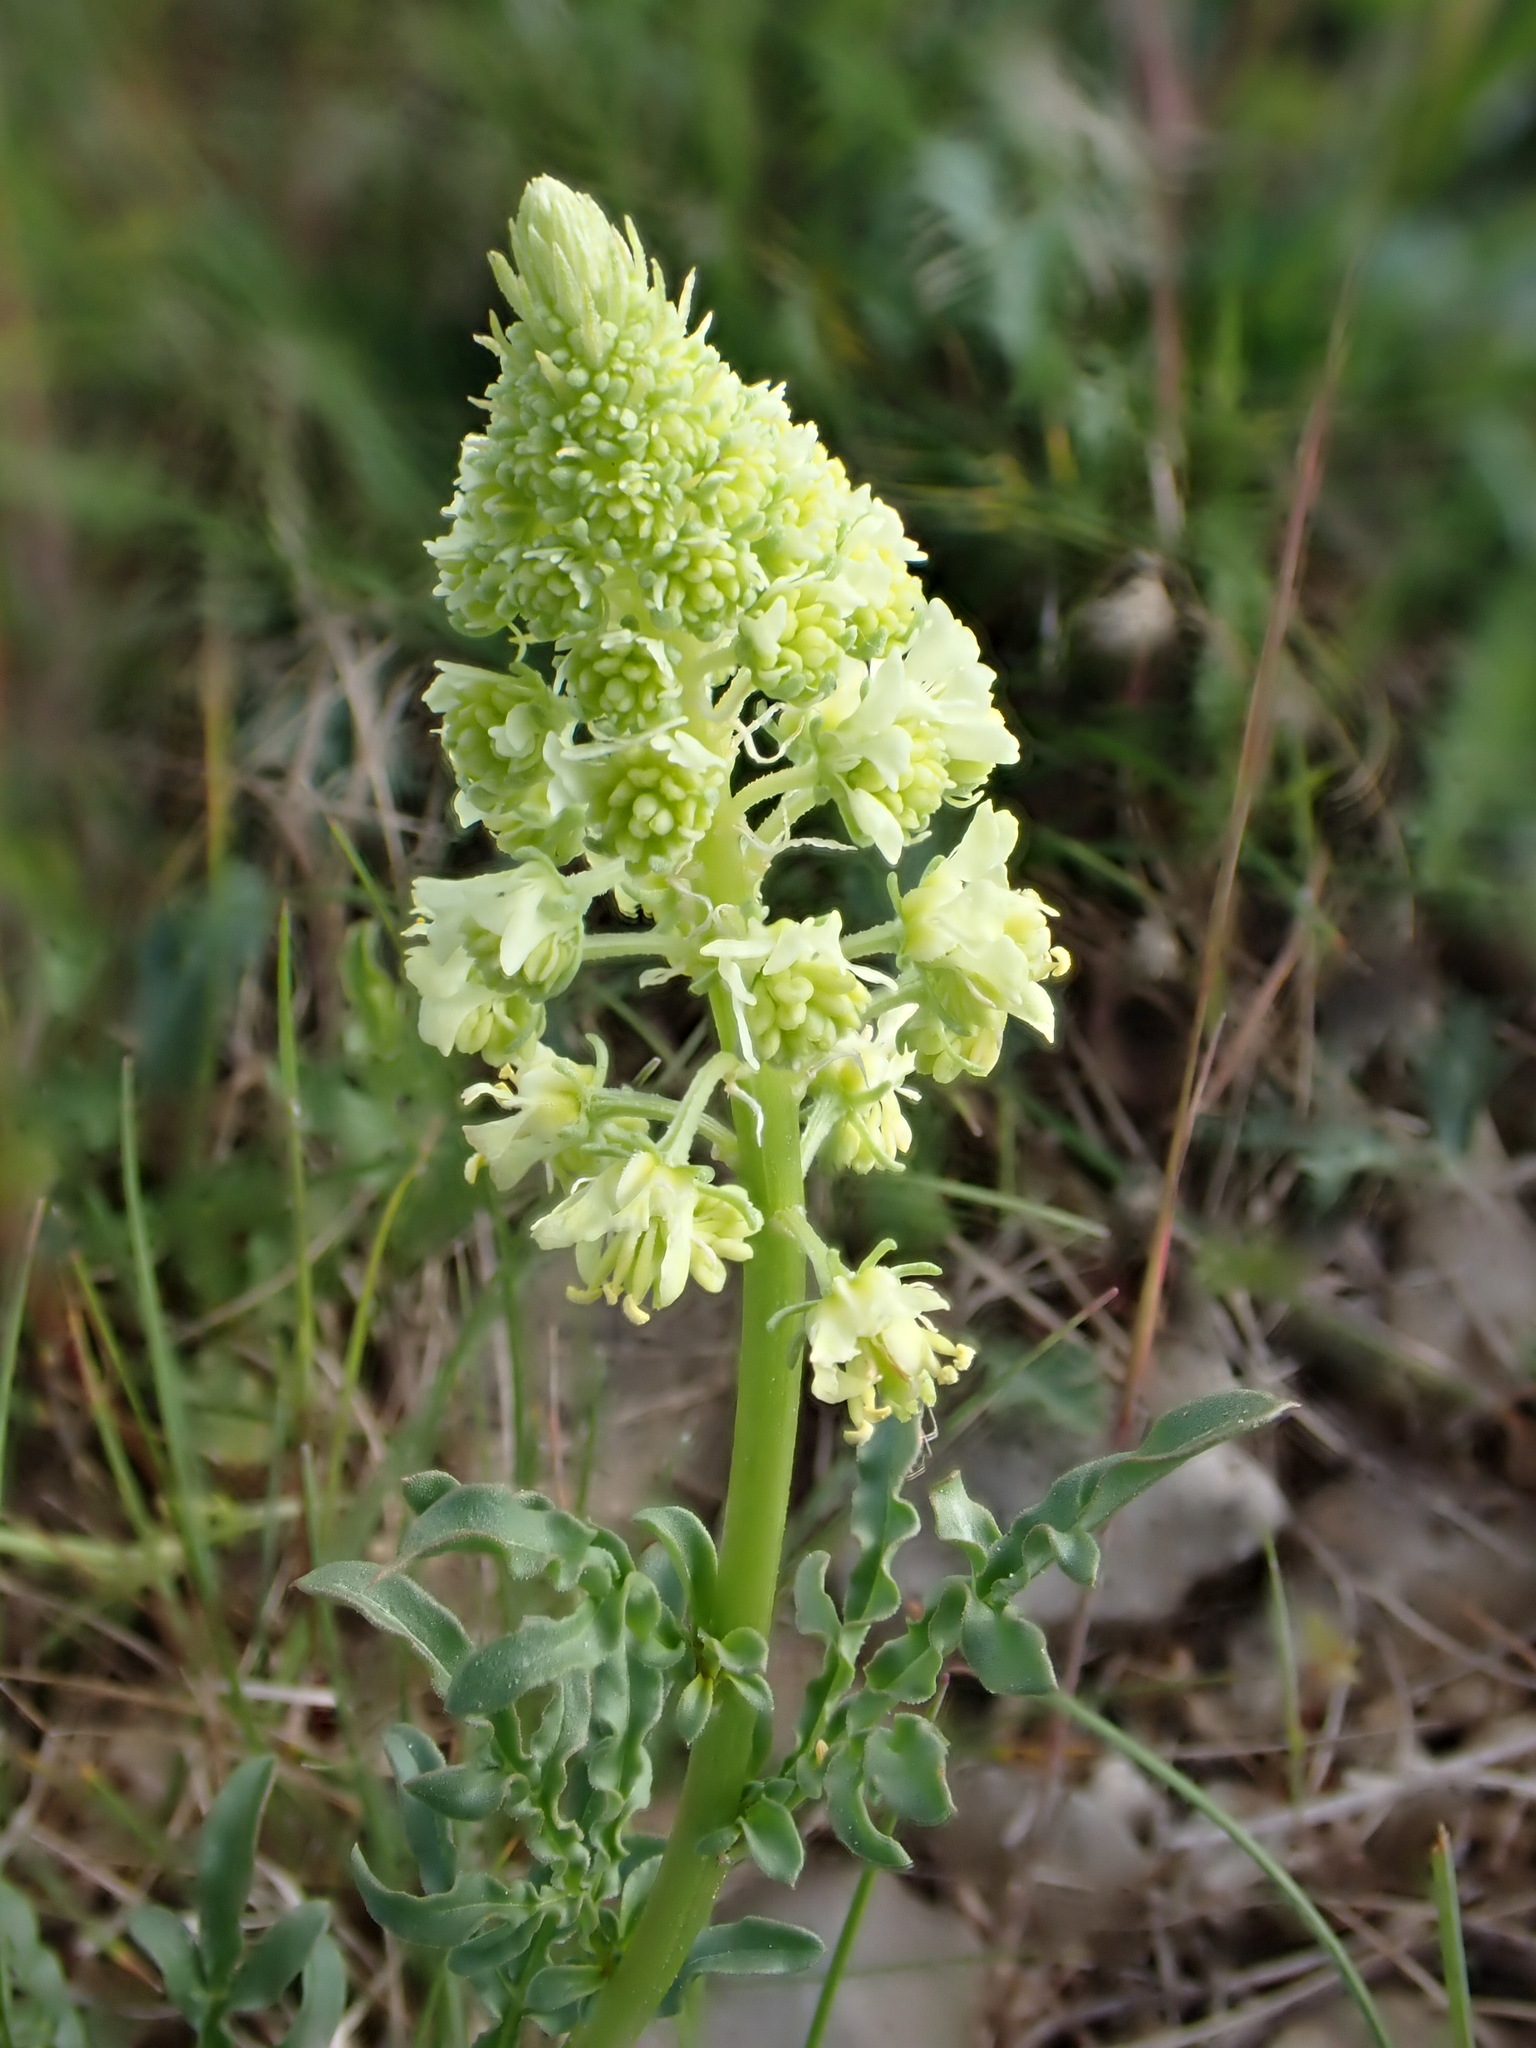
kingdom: Plantae
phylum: Tracheophyta
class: Magnoliopsida
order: Brassicales
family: Resedaceae
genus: Reseda
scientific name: Reseda lutea
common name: Wild mignonette
